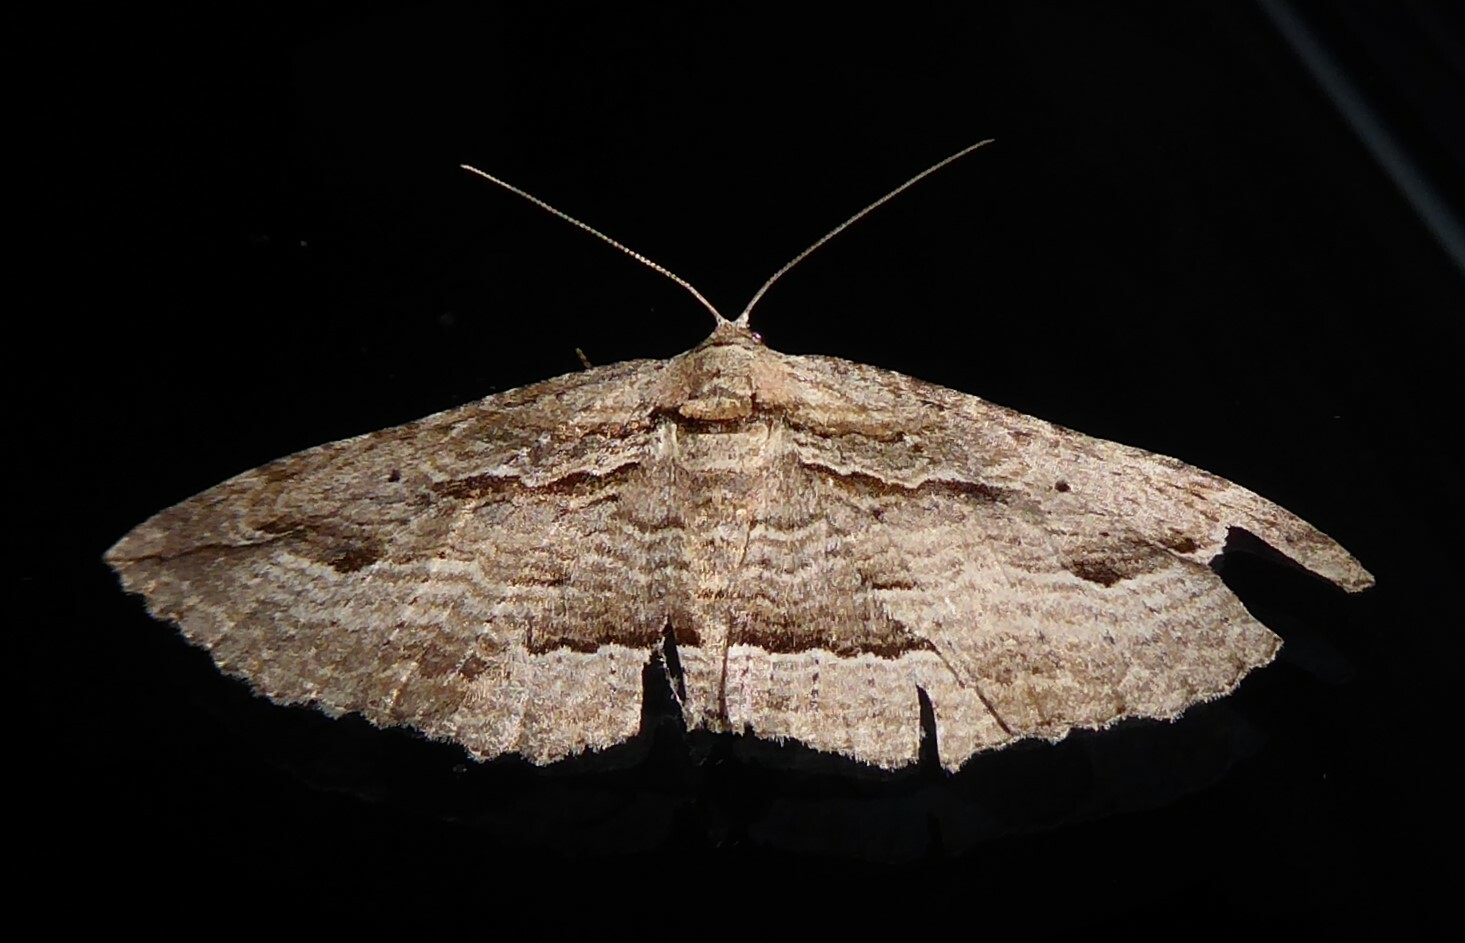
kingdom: Animalia
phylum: Arthropoda
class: Insecta
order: Lepidoptera
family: Geometridae
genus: Austrocidaria
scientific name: Austrocidaria gobiata
